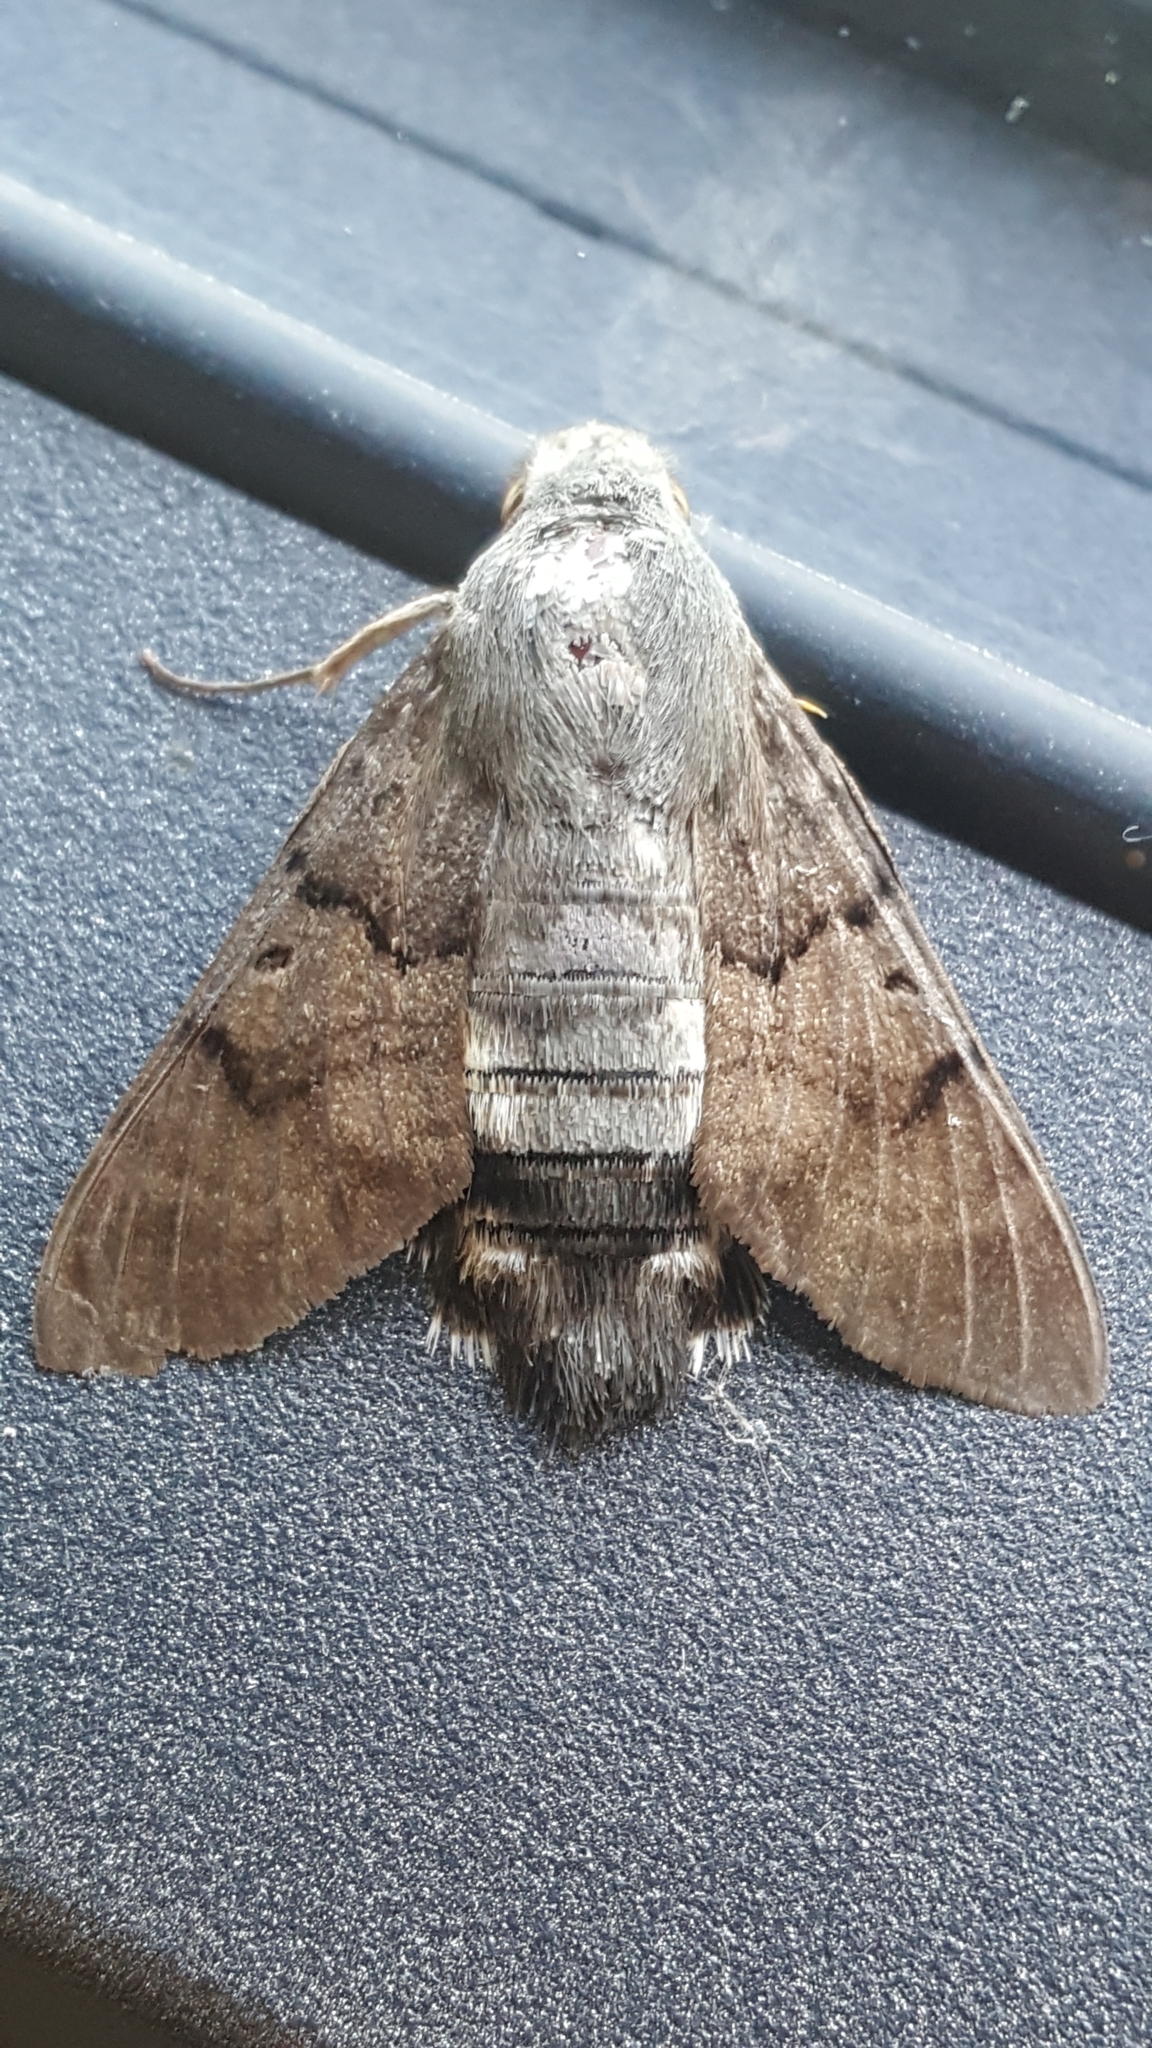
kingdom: Animalia
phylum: Arthropoda
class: Insecta
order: Lepidoptera
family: Sphingidae
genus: Macroglossum
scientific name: Macroglossum stellatarum
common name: Humming-bird hawk-moth
